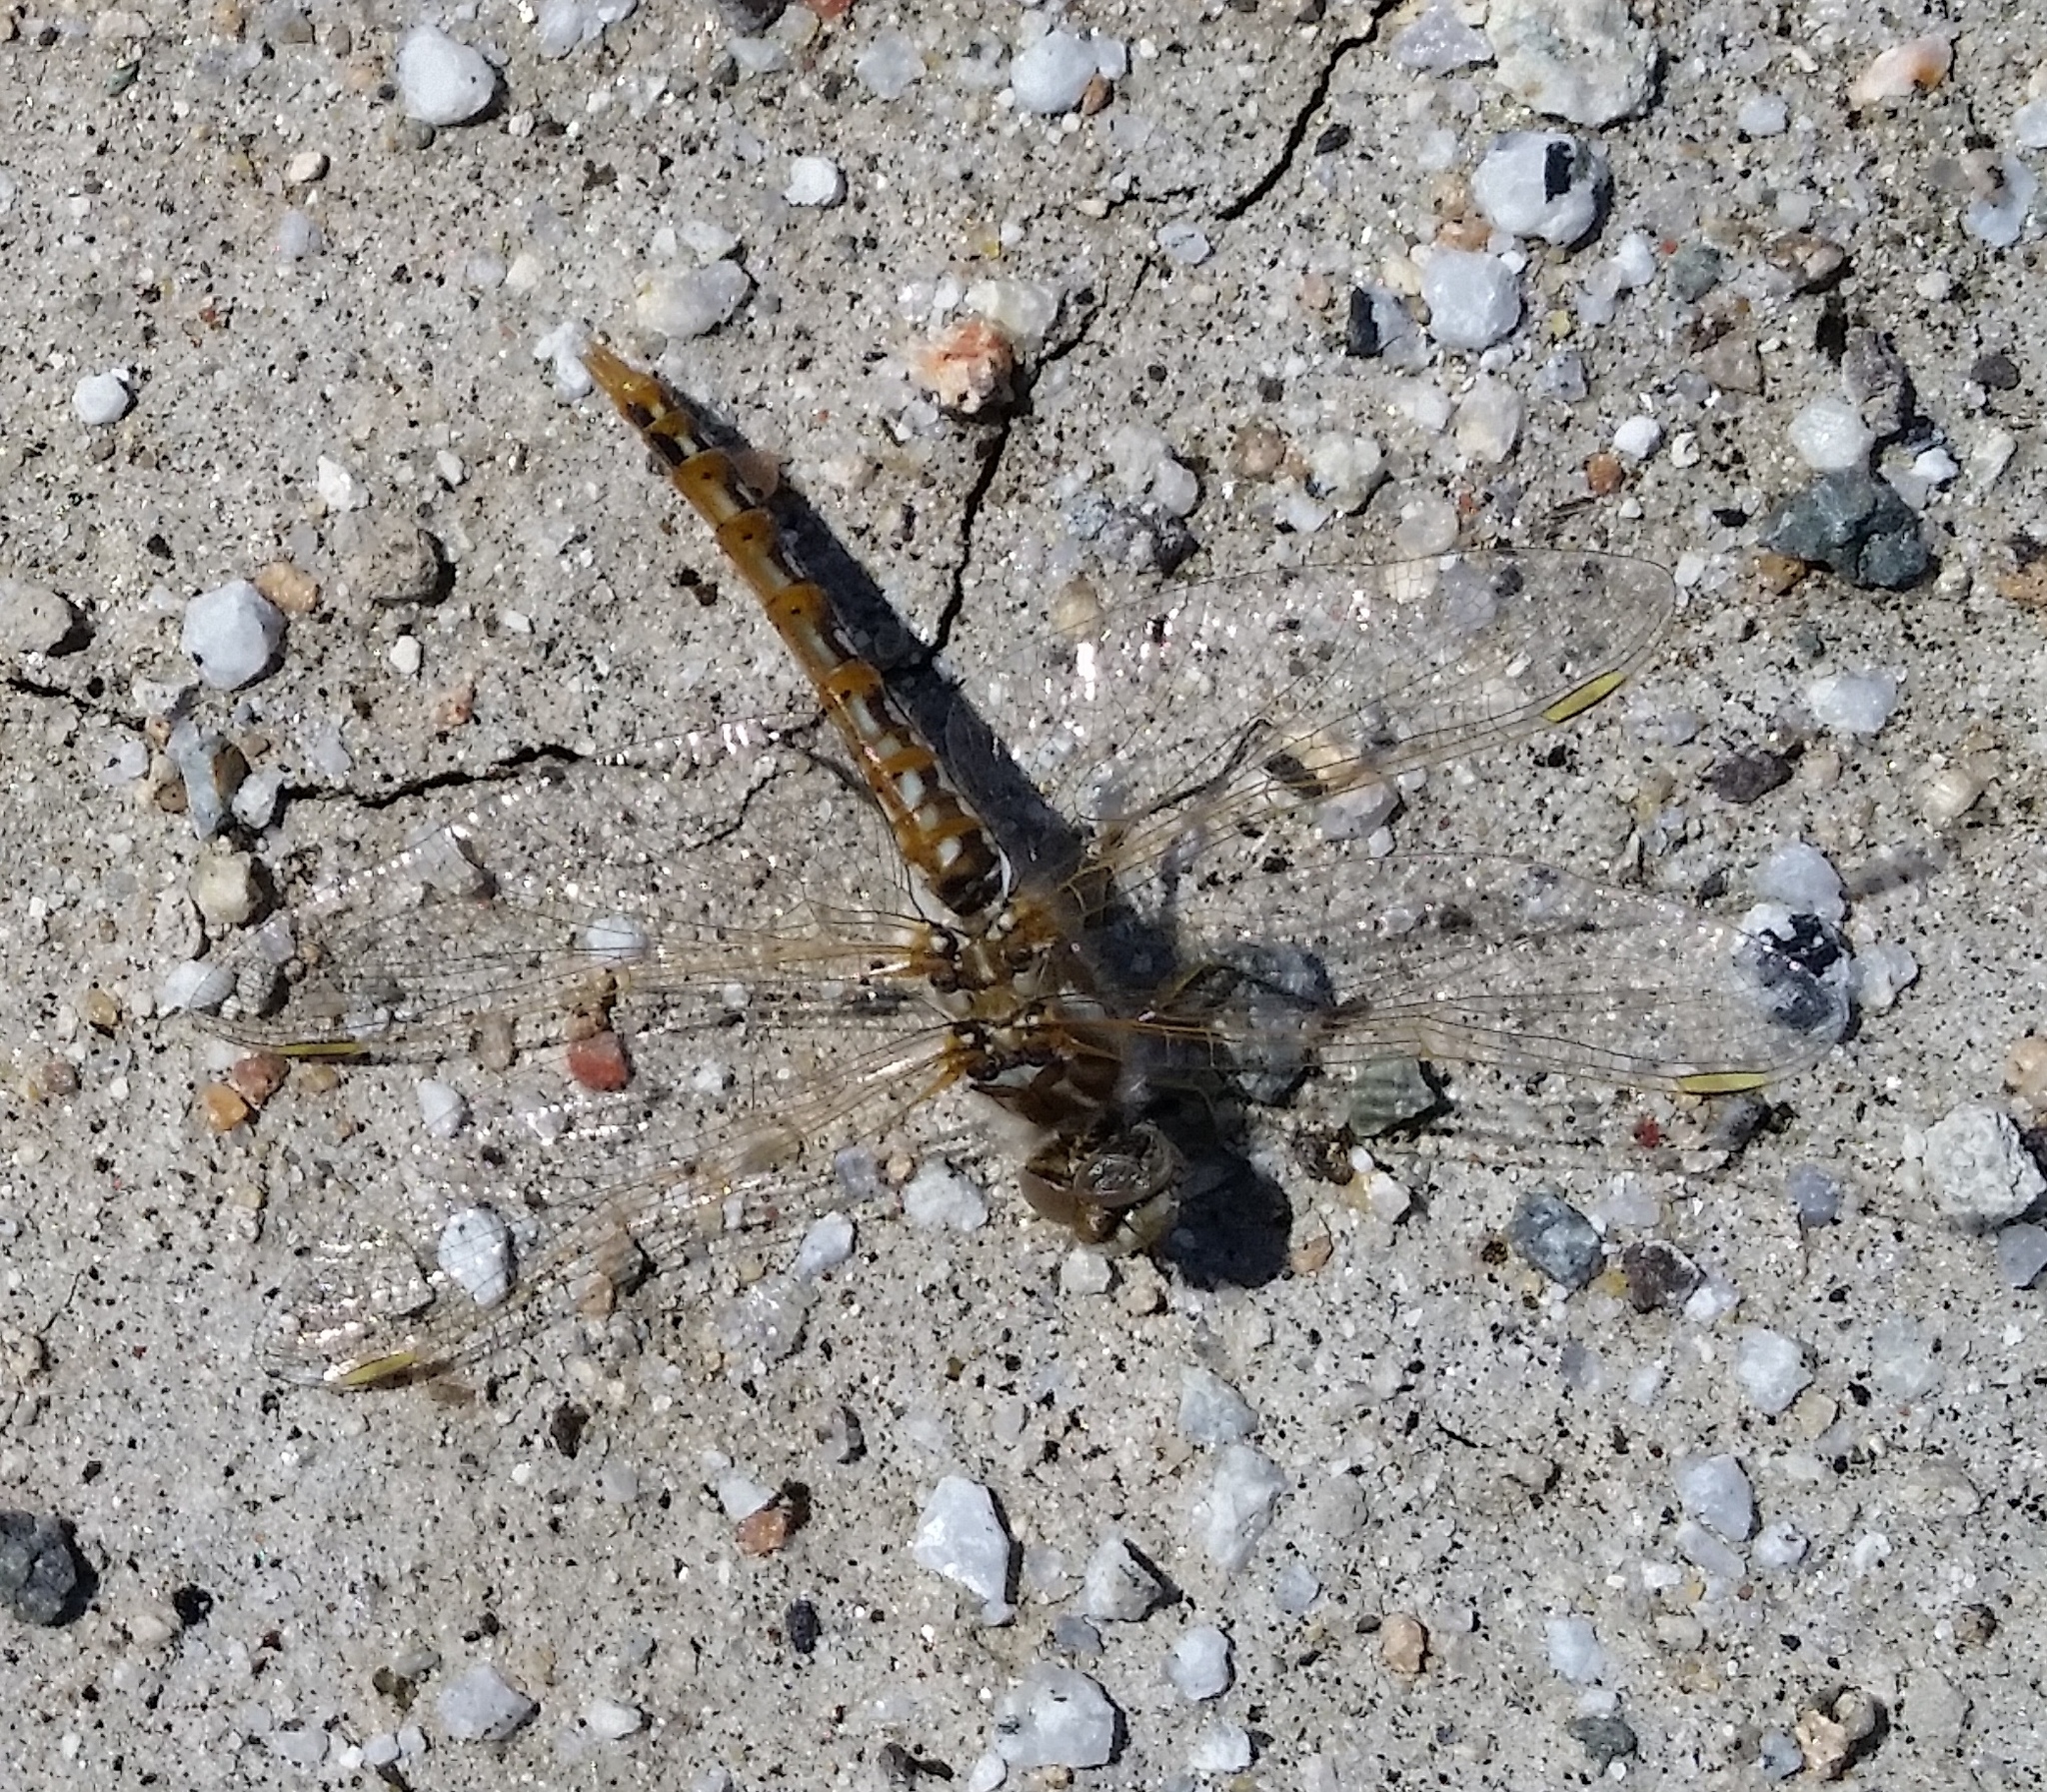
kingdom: Animalia
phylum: Arthropoda
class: Insecta
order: Odonata
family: Libellulidae
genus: Sympetrum
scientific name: Sympetrum corruptum
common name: Variegated meadowhawk
